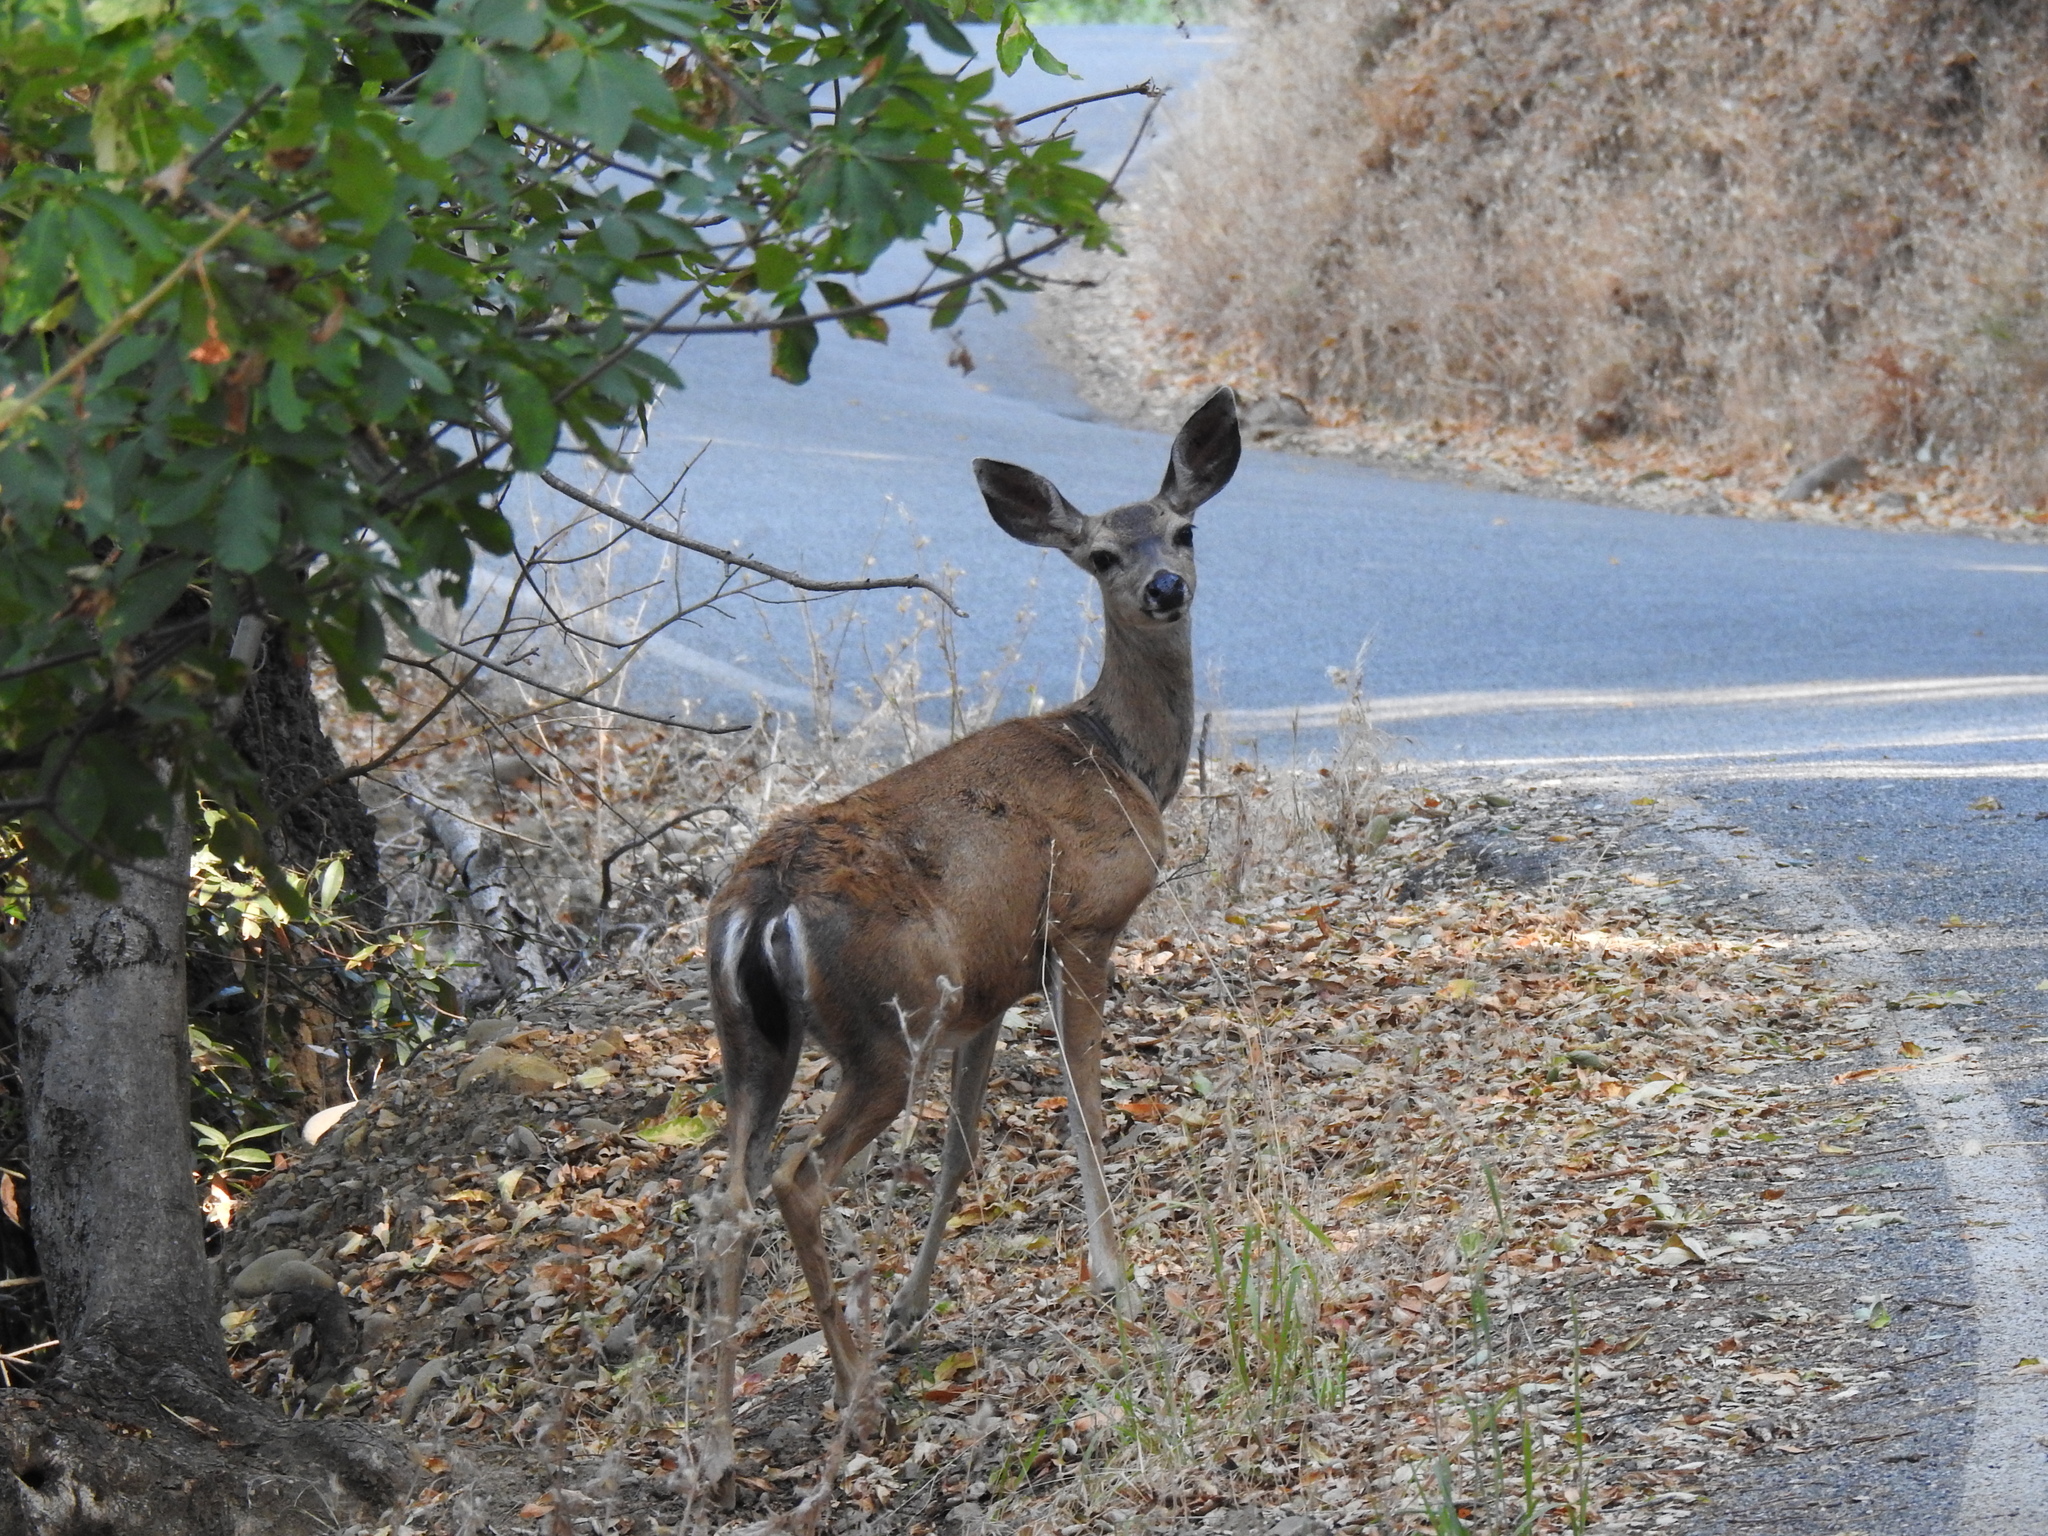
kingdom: Animalia
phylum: Chordata
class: Mammalia
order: Artiodactyla
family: Cervidae
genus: Odocoileus
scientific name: Odocoileus hemionus
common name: Mule deer
